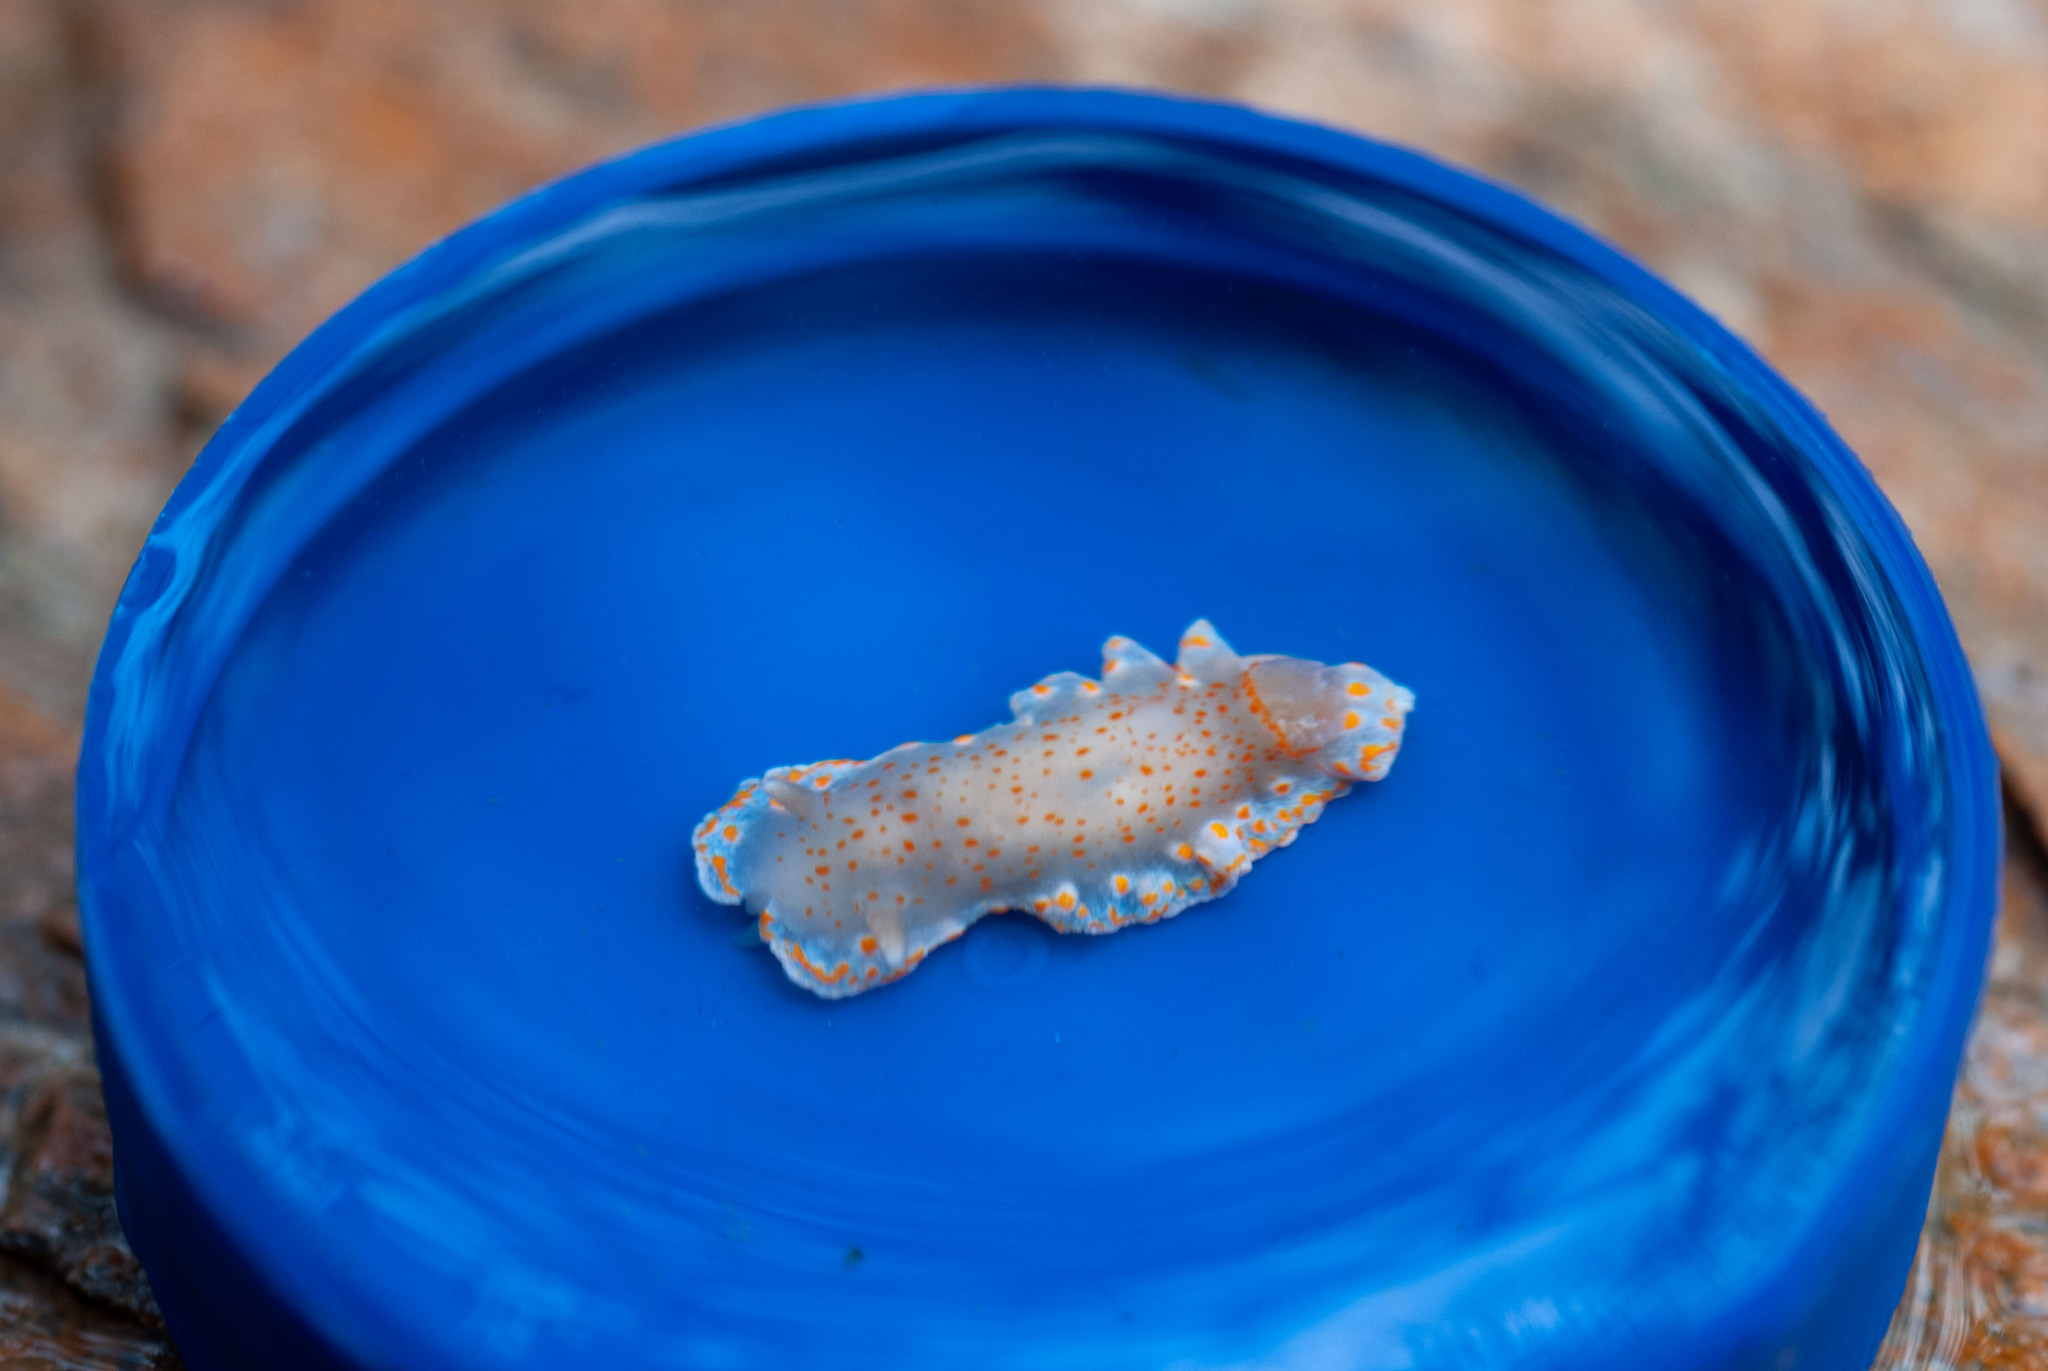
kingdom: Animalia
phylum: Mollusca
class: Gastropoda
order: Nudibranchia
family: Chromodorididae
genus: Tyrinna
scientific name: Tyrinna evelinae
